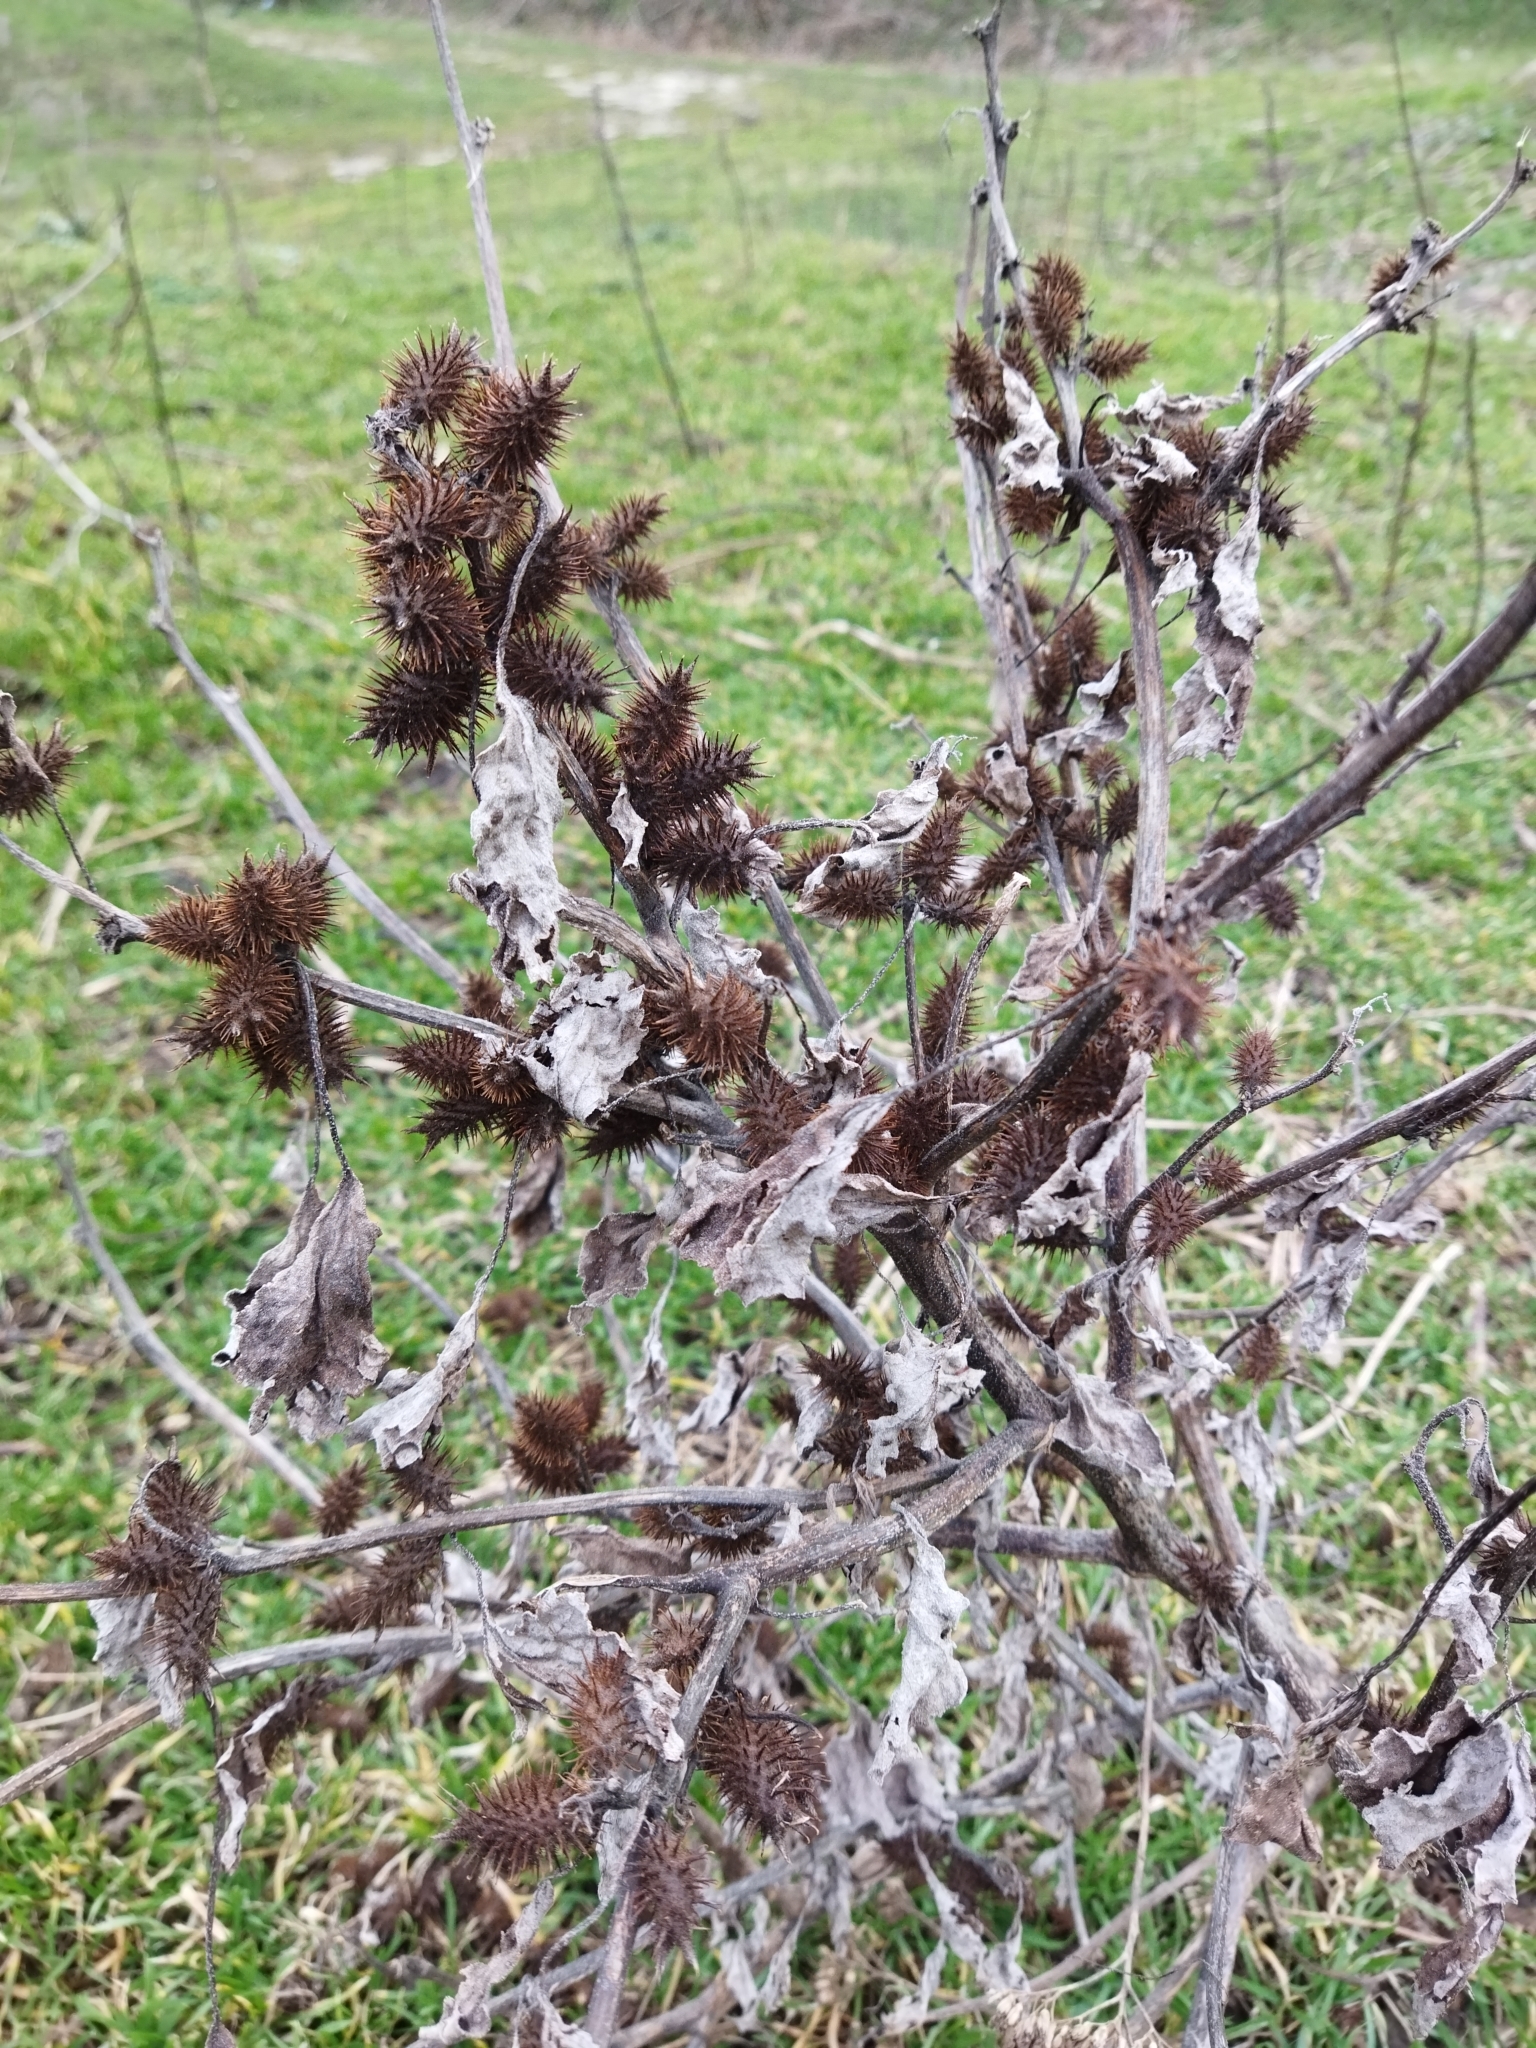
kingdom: Plantae
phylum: Tracheophyta
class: Magnoliopsida
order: Asterales
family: Asteraceae
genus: Xanthium
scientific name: Xanthium orientale
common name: Californian burr
